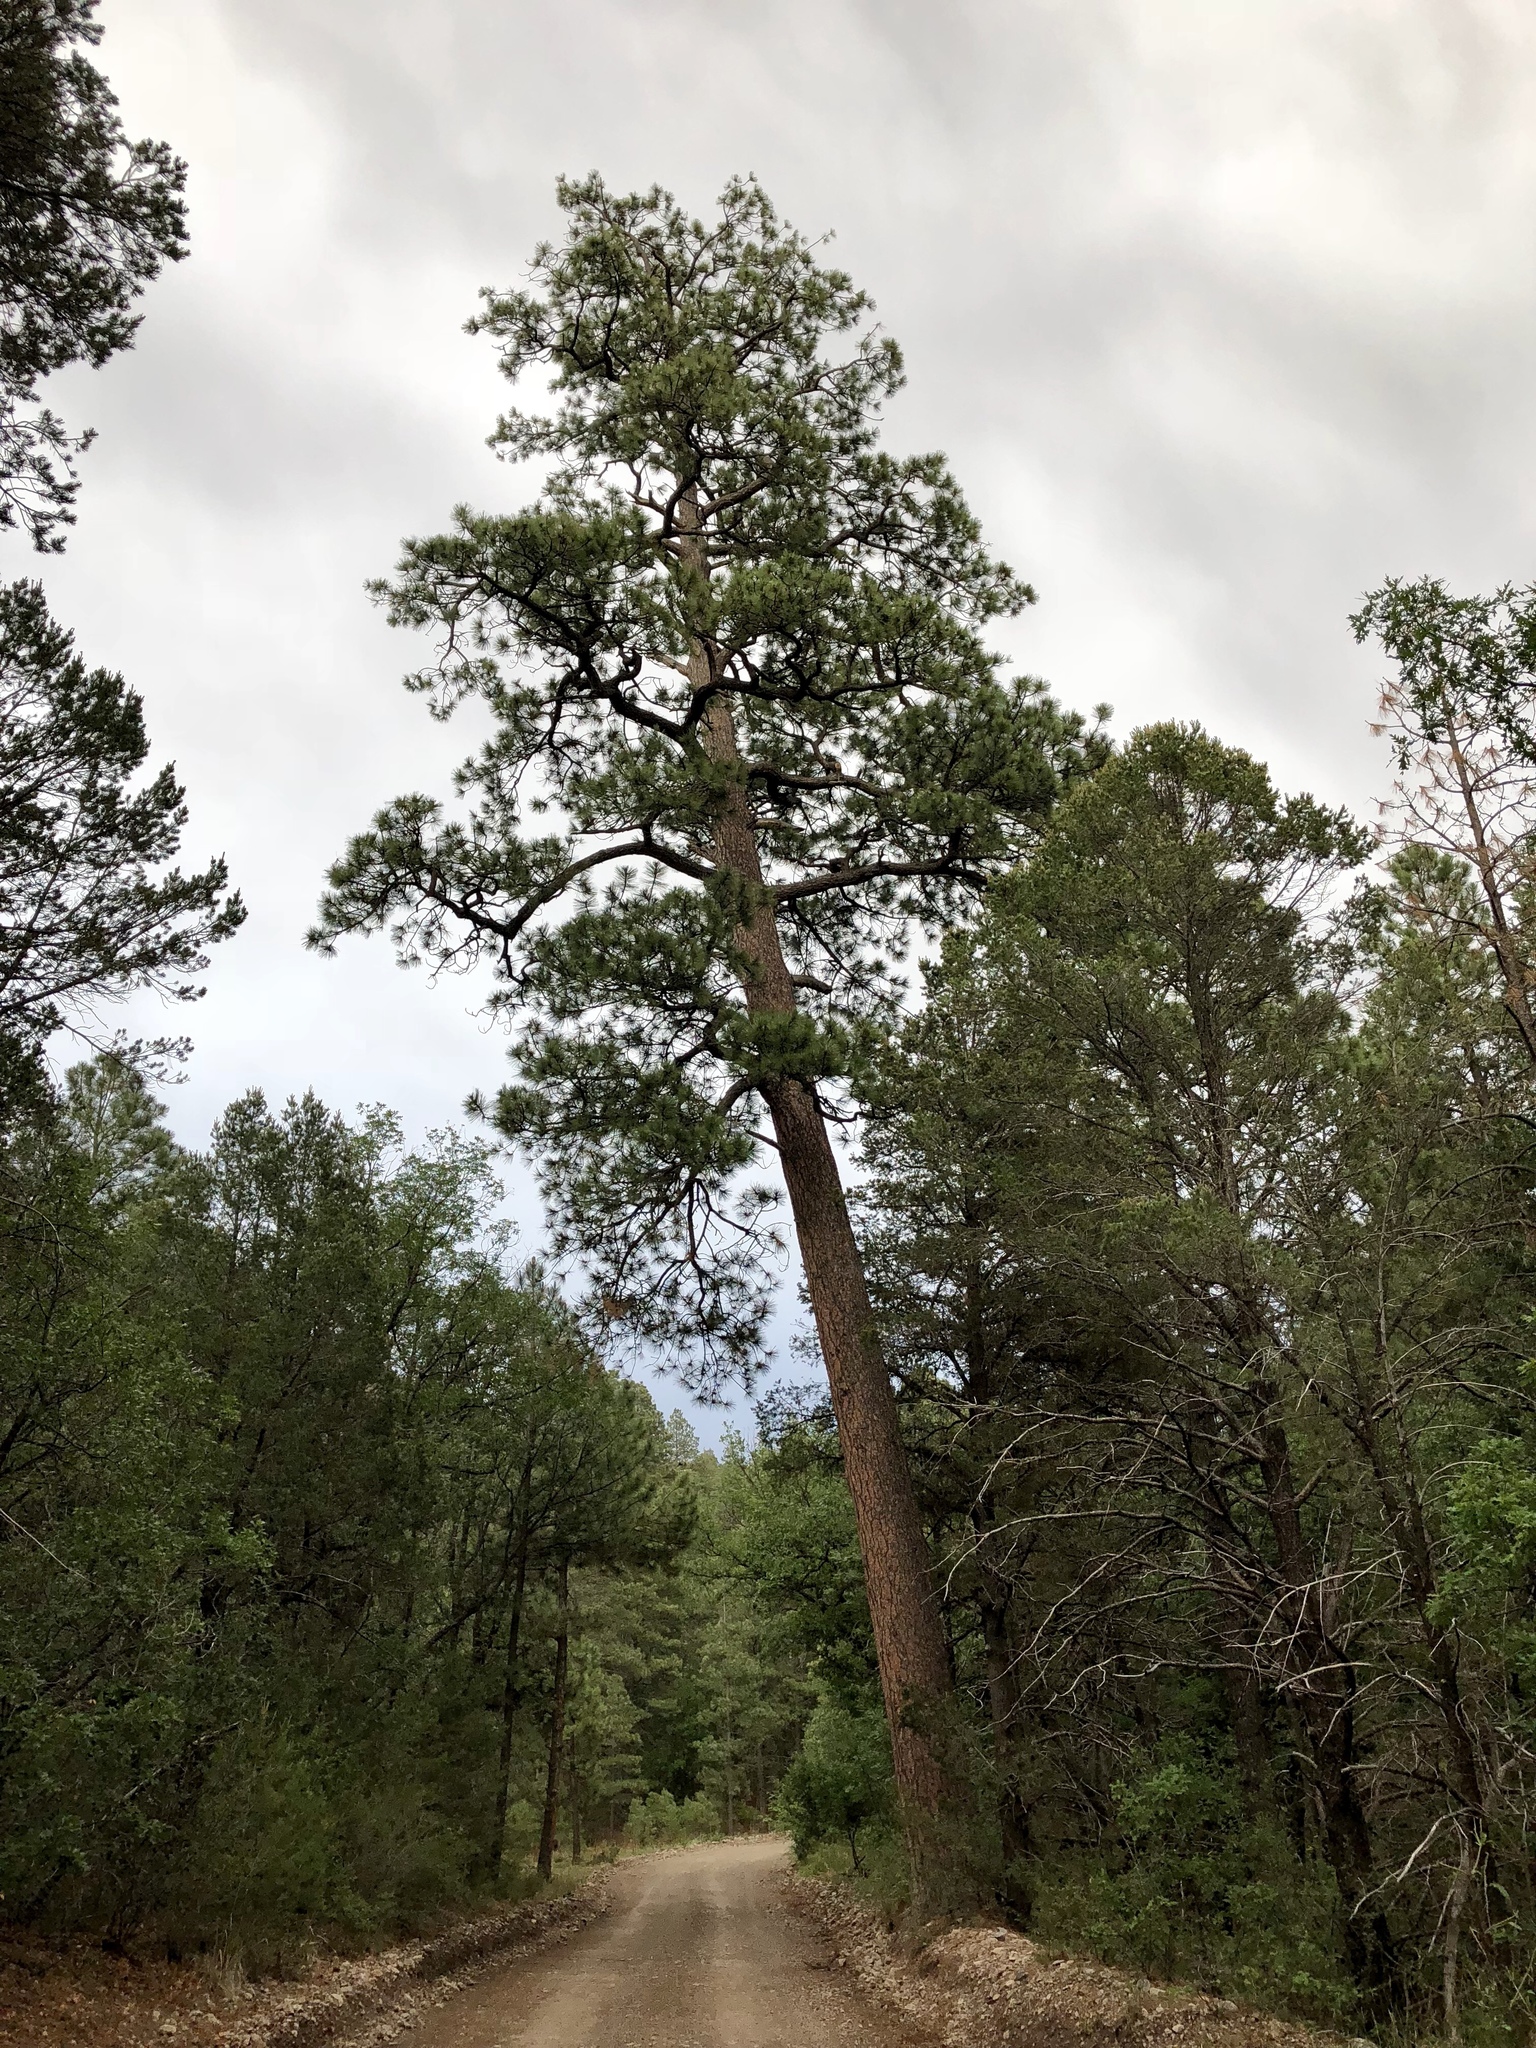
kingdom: Plantae
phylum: Tracheophyta
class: Pinopsida
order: Pinales
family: Pinaceae
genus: Pinus
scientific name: Pinus ponderosa
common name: Western yellow-pine
